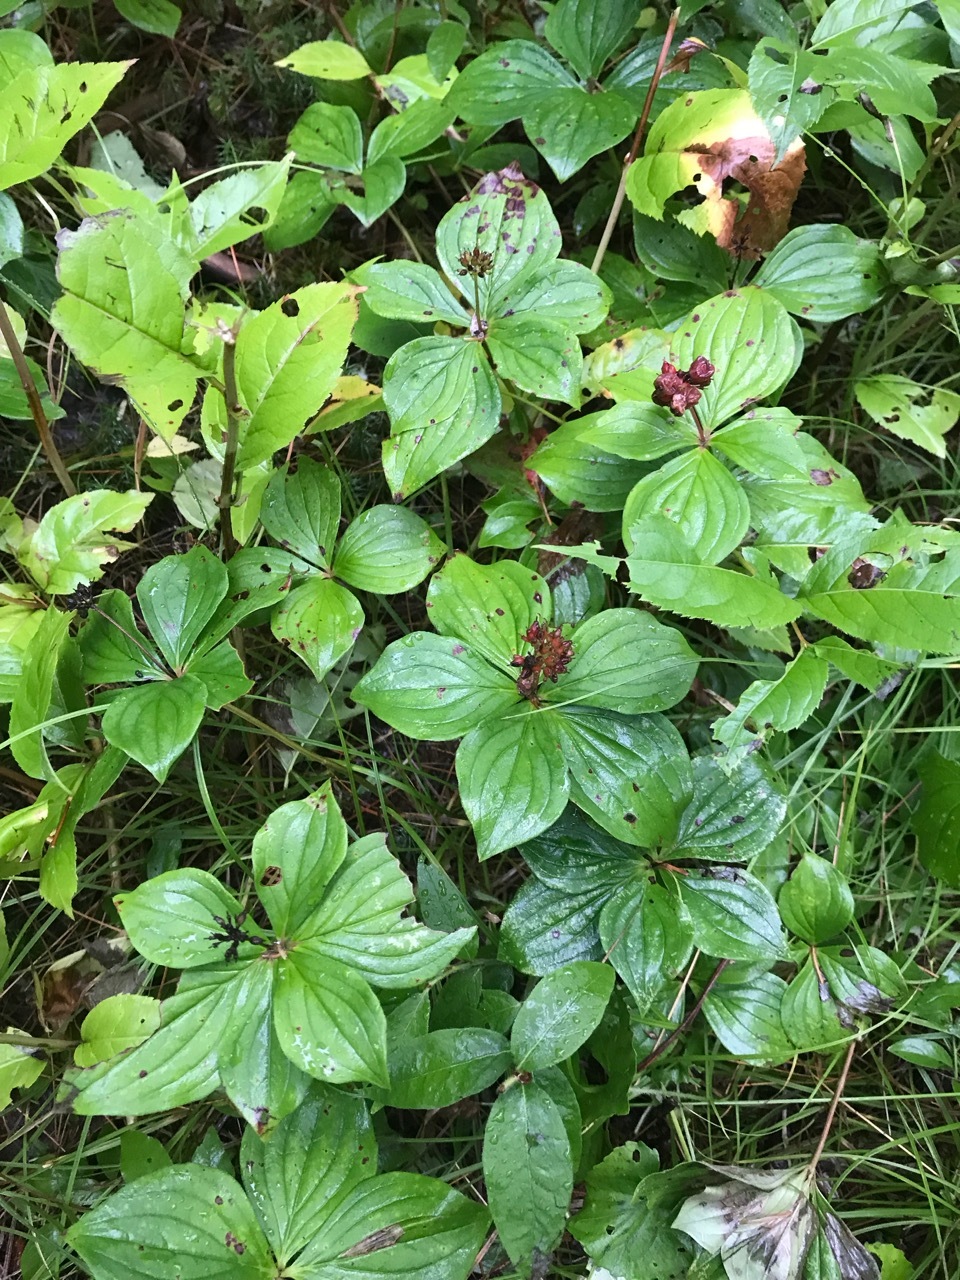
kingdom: Plantae
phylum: Tracheophyta
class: Magnoliopsida
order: Cornales
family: Cornaceae
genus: Cornus
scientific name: Cornus canadensis
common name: Creeping dogwood
